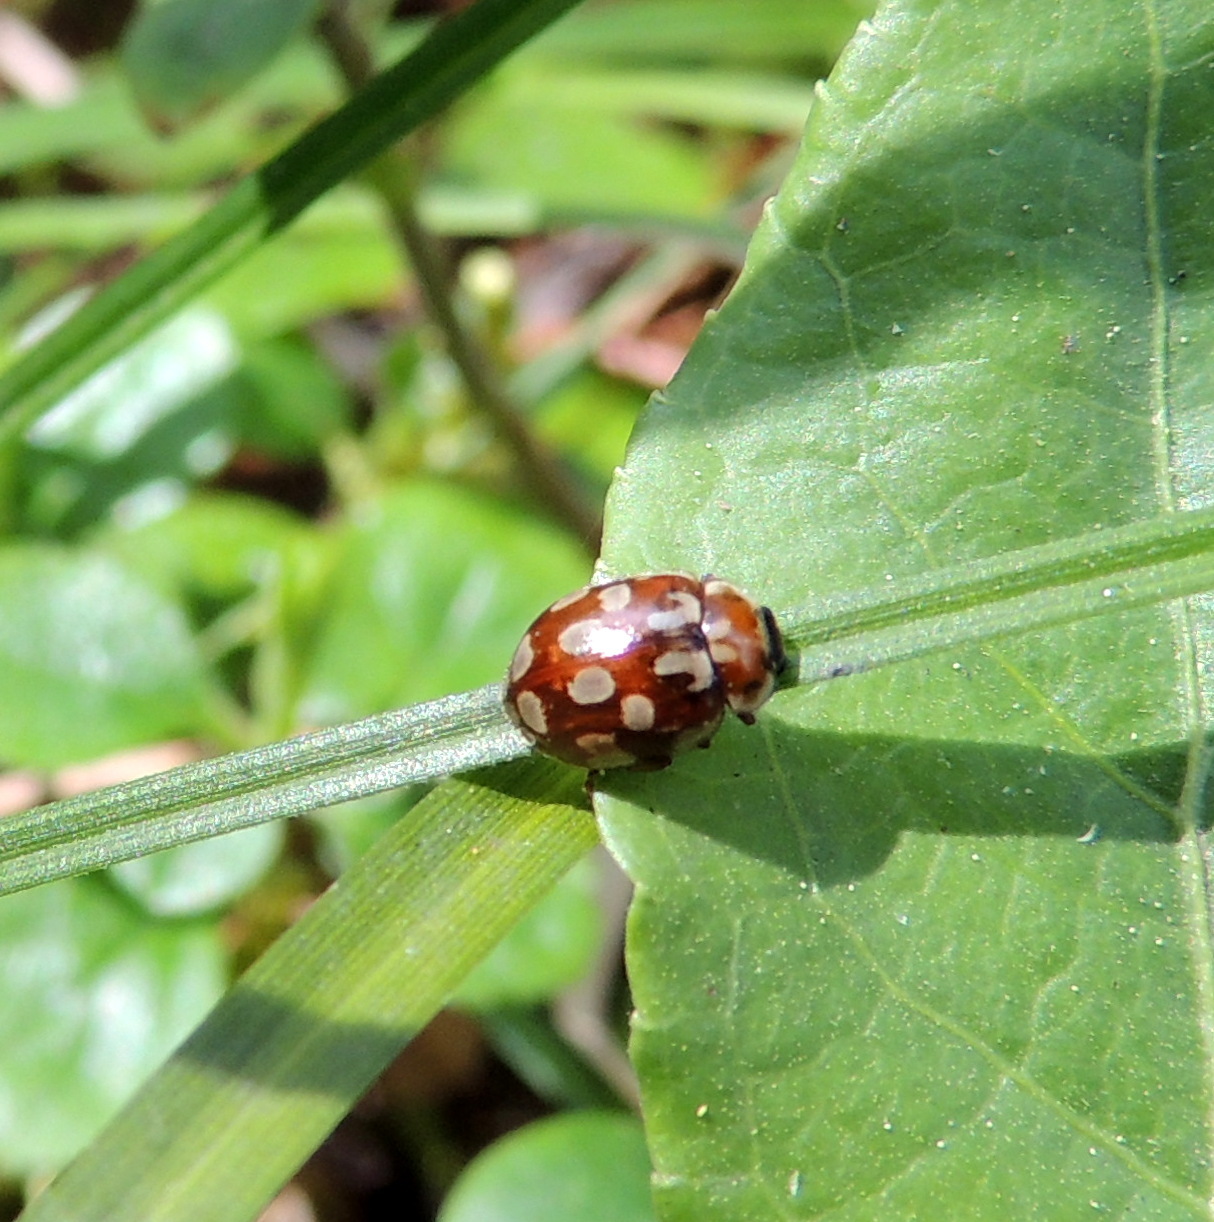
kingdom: Animalia
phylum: Arthropoda
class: Insecta
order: Coleoptera
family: Coccinellidae
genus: Myrrha
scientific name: Myrrha octodecimguttata
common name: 18-spot ladybird
